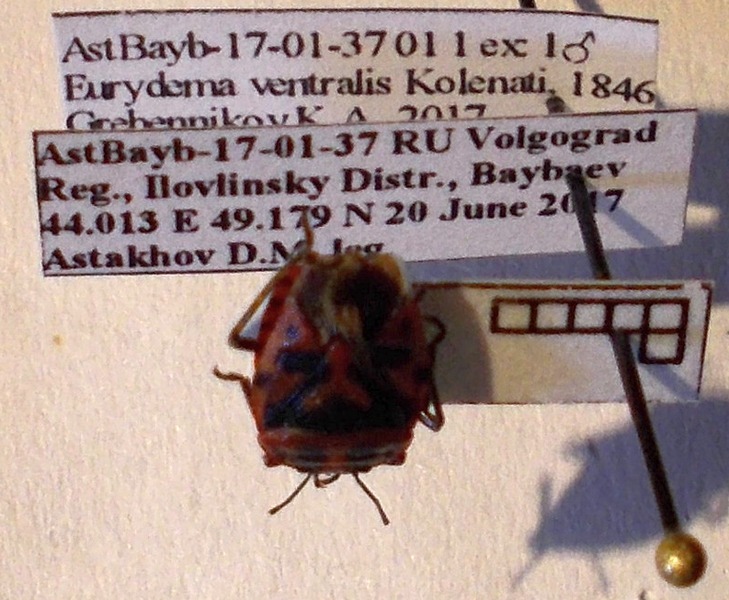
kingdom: Animalia
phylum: Arthropoda
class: Insecta
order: Hemiptera
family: Pentatomidae
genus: Eurydema
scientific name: Eurydema ventralis
